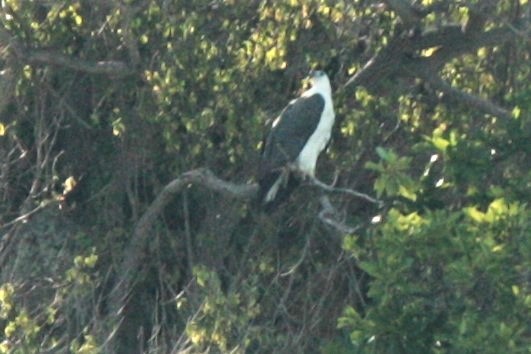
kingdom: Animalia
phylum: Chordata
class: Aves
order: Accipitriformes
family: Accipitridae
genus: Haliaeetus
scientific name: Haliaeetus leucogaster
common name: White-bellied sea eagle
